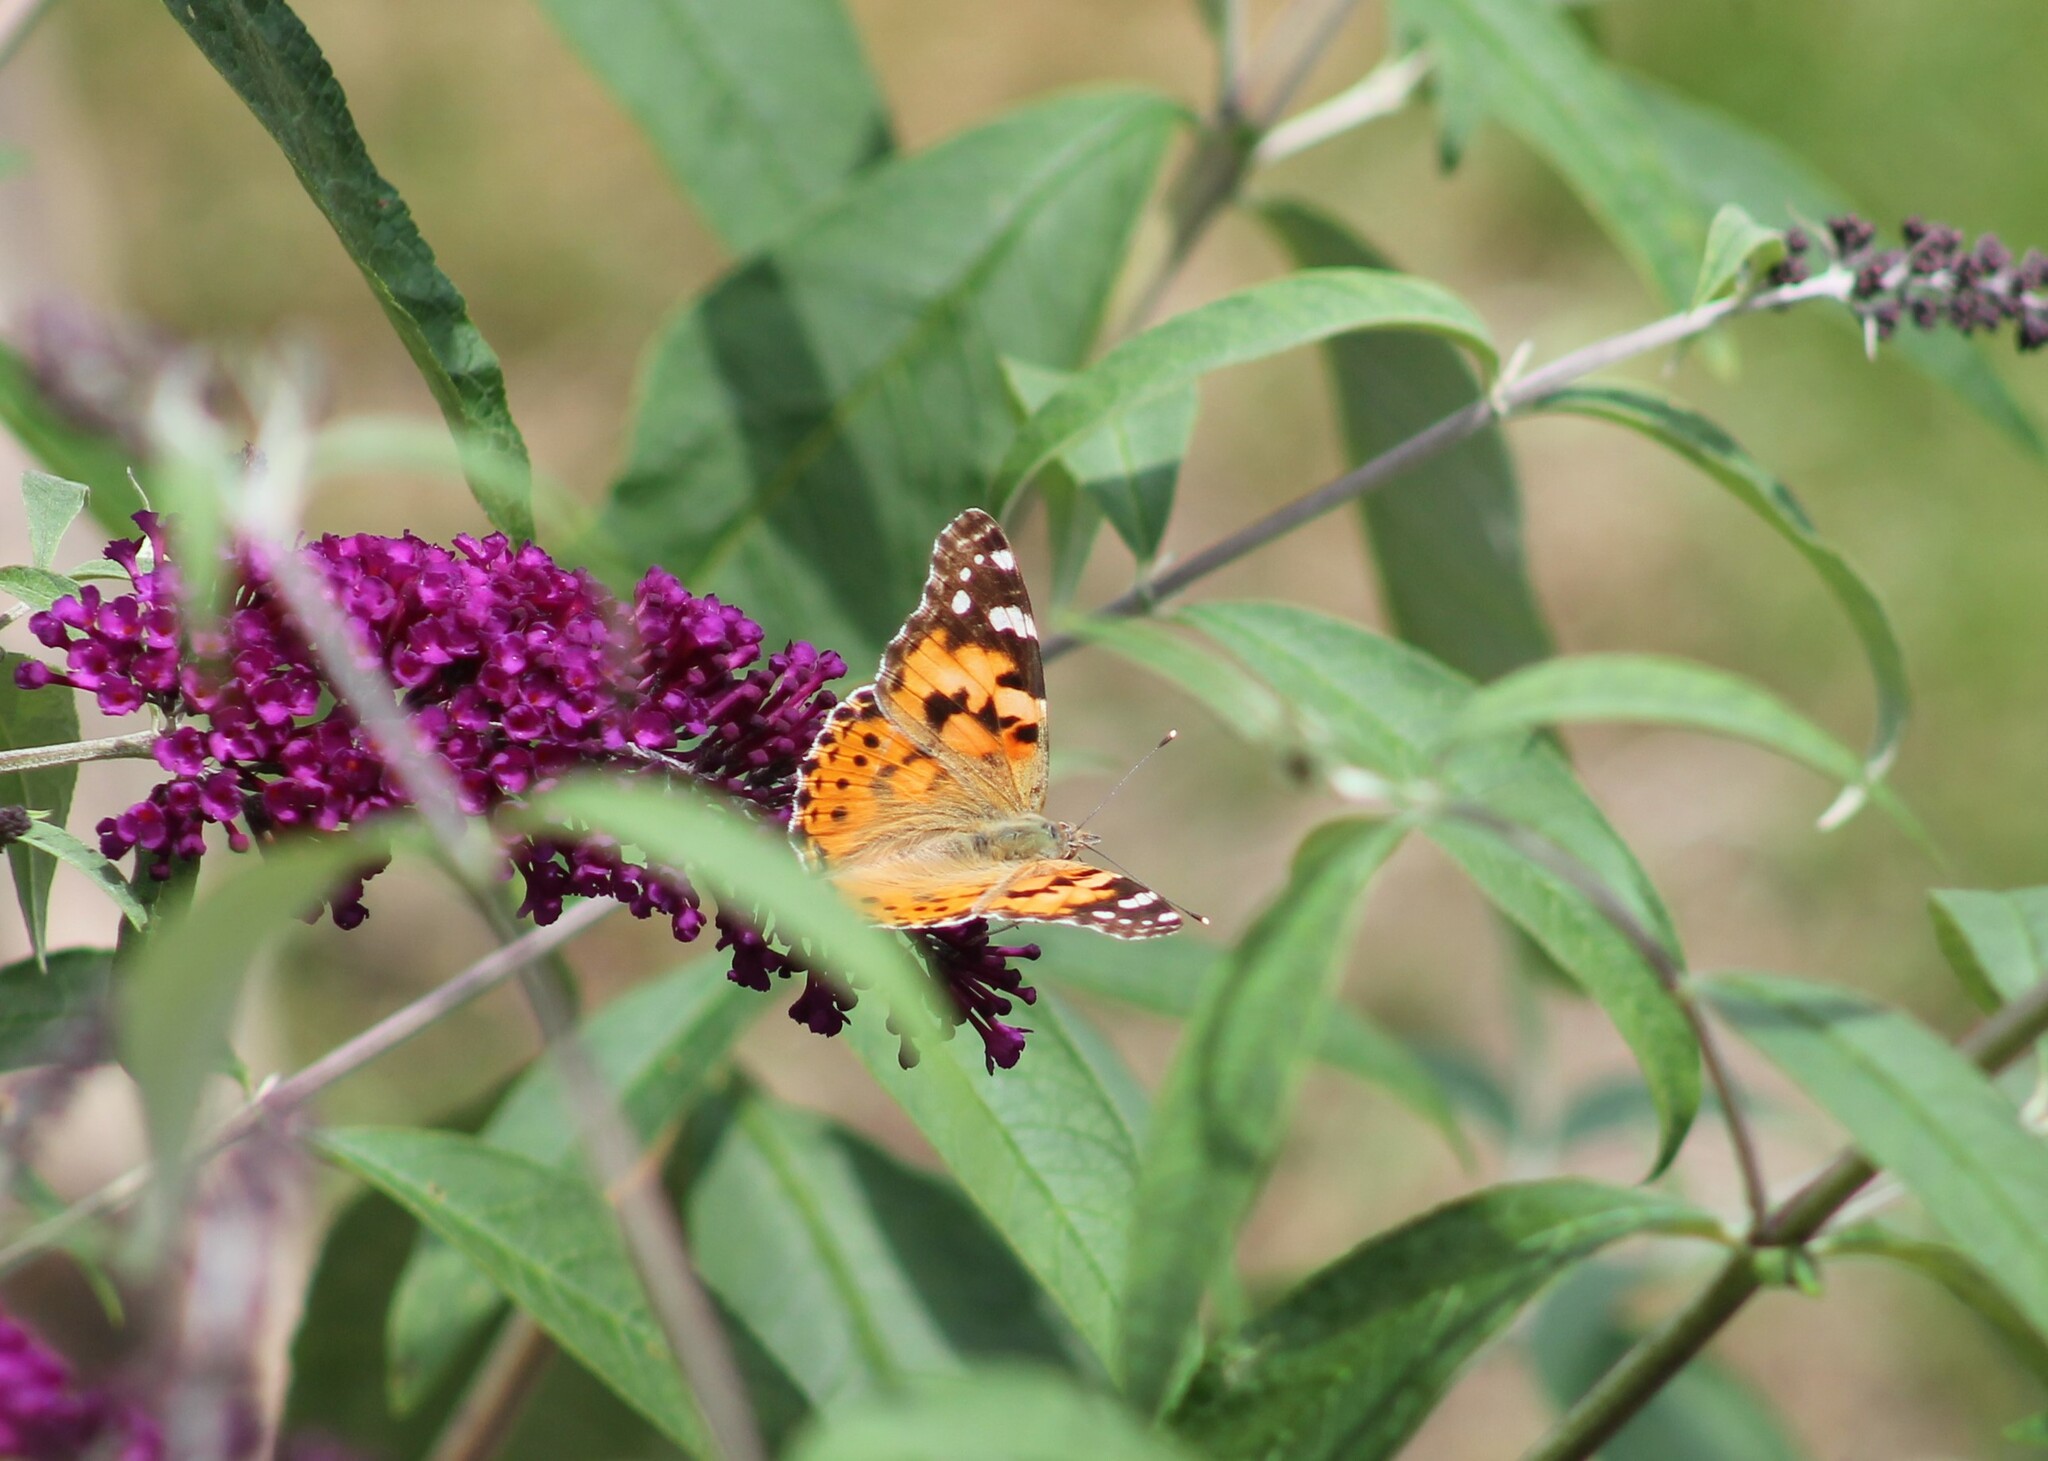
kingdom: Animalia
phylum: Arthropoda
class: Insecta
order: Lepidoptera
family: Nymphalidae
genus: Vanessa
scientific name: Vanessa cardui
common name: Painted lady
